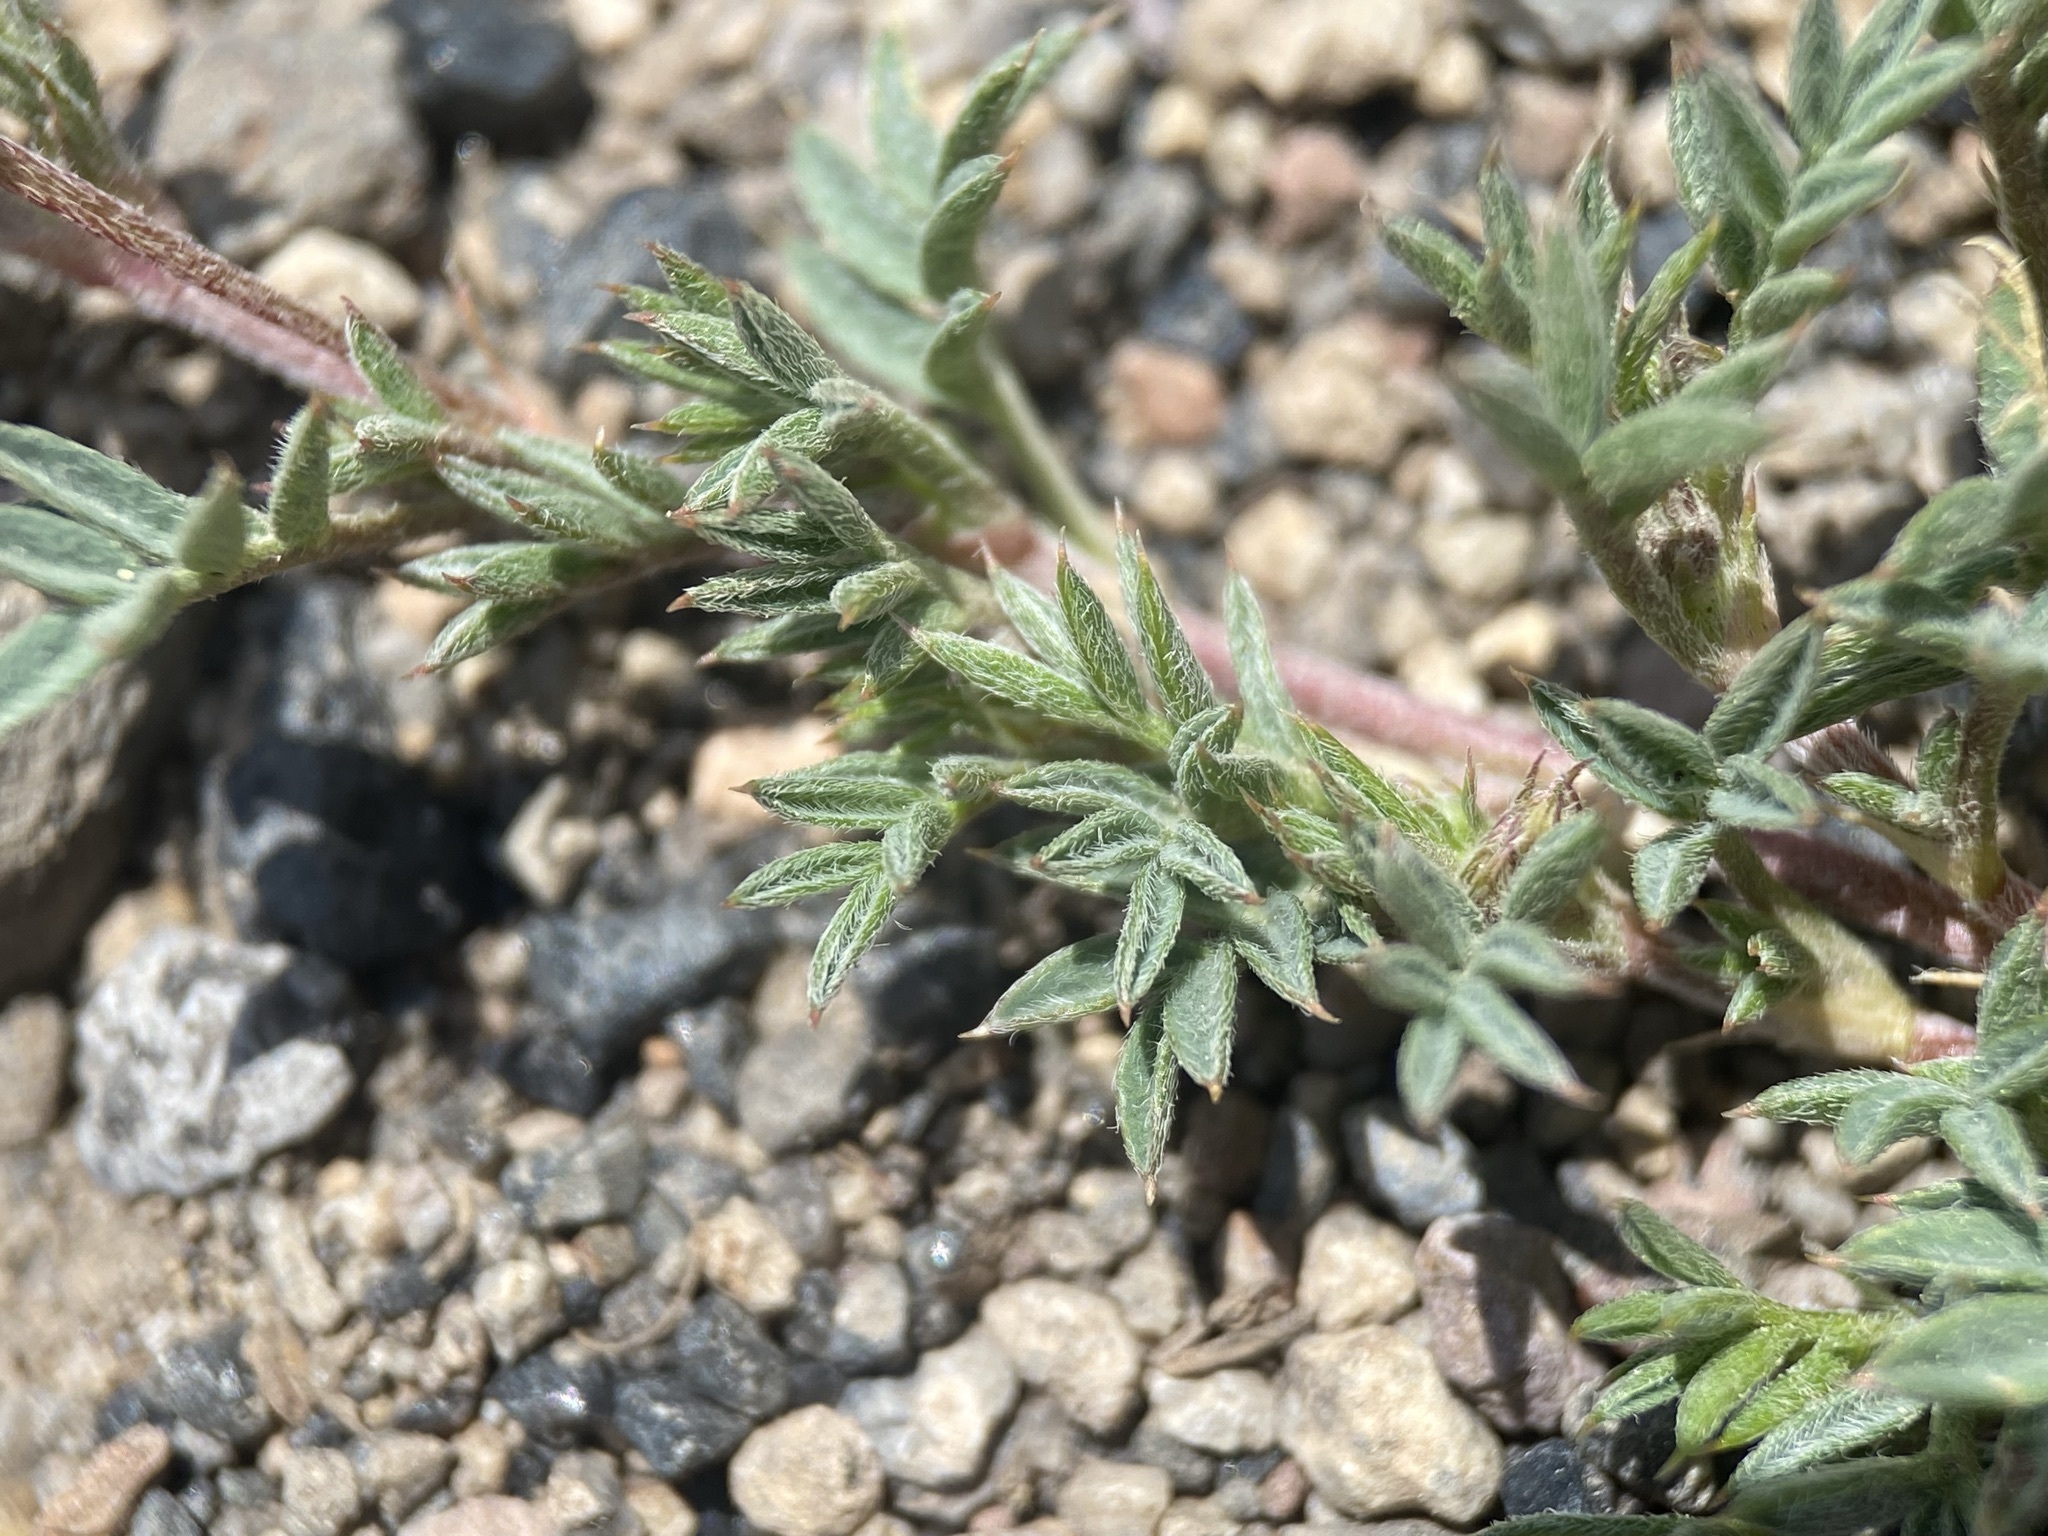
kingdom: Plantae
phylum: Tracheophyta
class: Magnoliopsida
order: Fabales
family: Fabaceae
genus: Astragalus
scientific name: Astragalus kentrophyta
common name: Prickly milk-vetch
